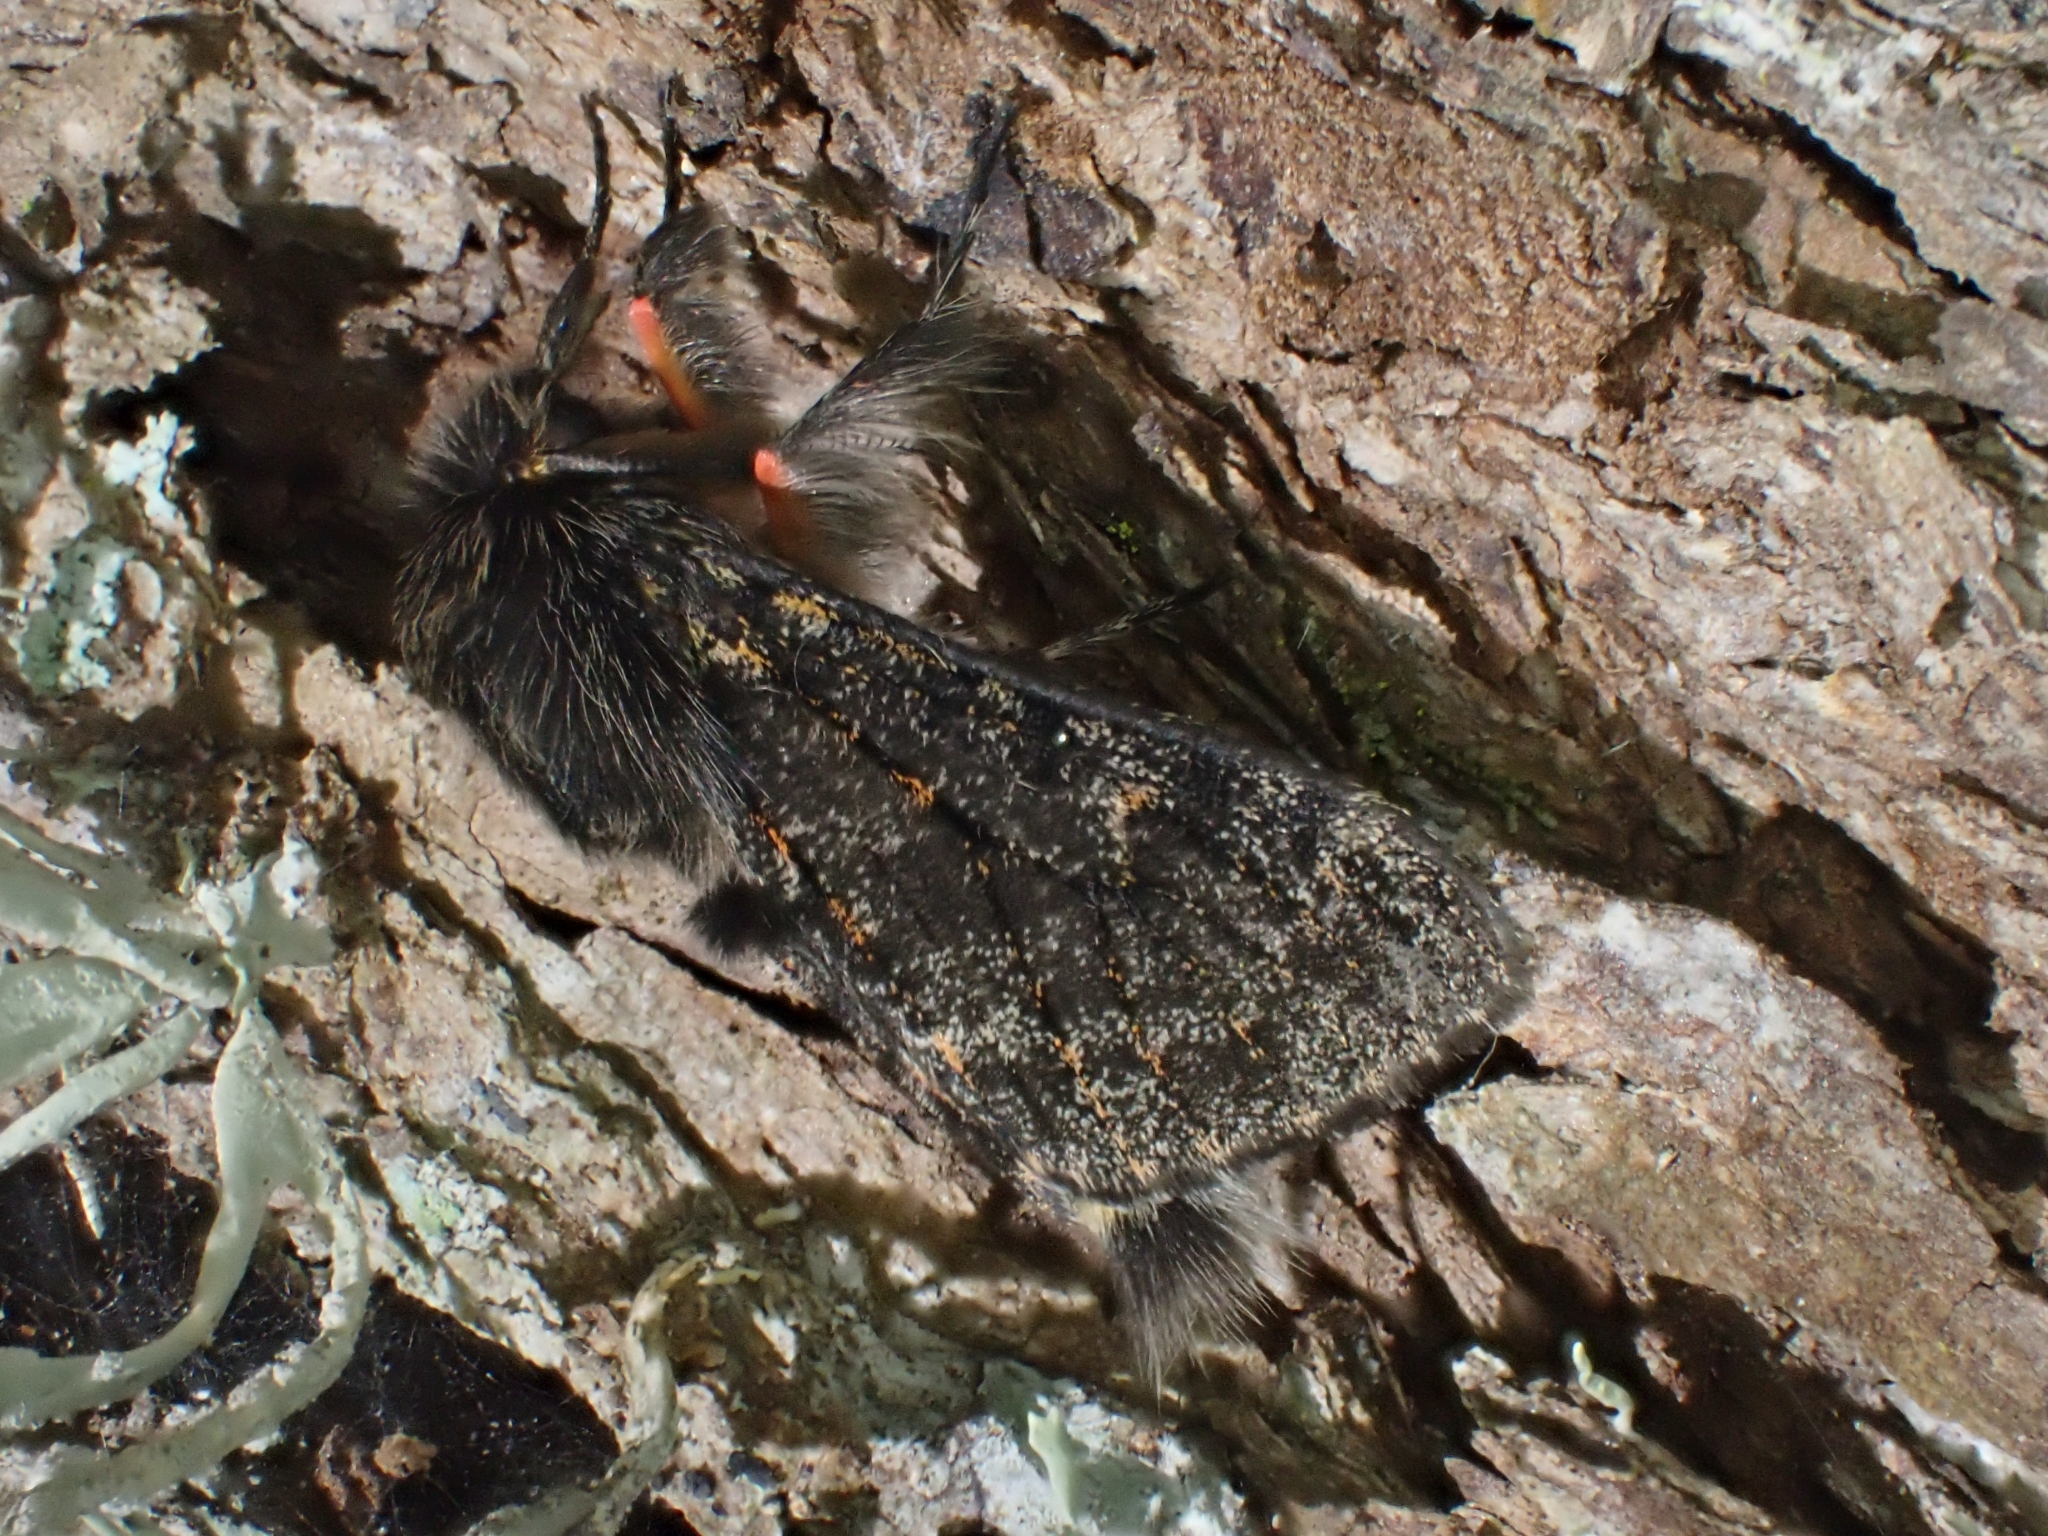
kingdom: Animalia
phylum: Arthropoda
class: Insecta
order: Lepidoptera
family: Erebidae
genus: Polymona
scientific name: Polymona rufifemur
